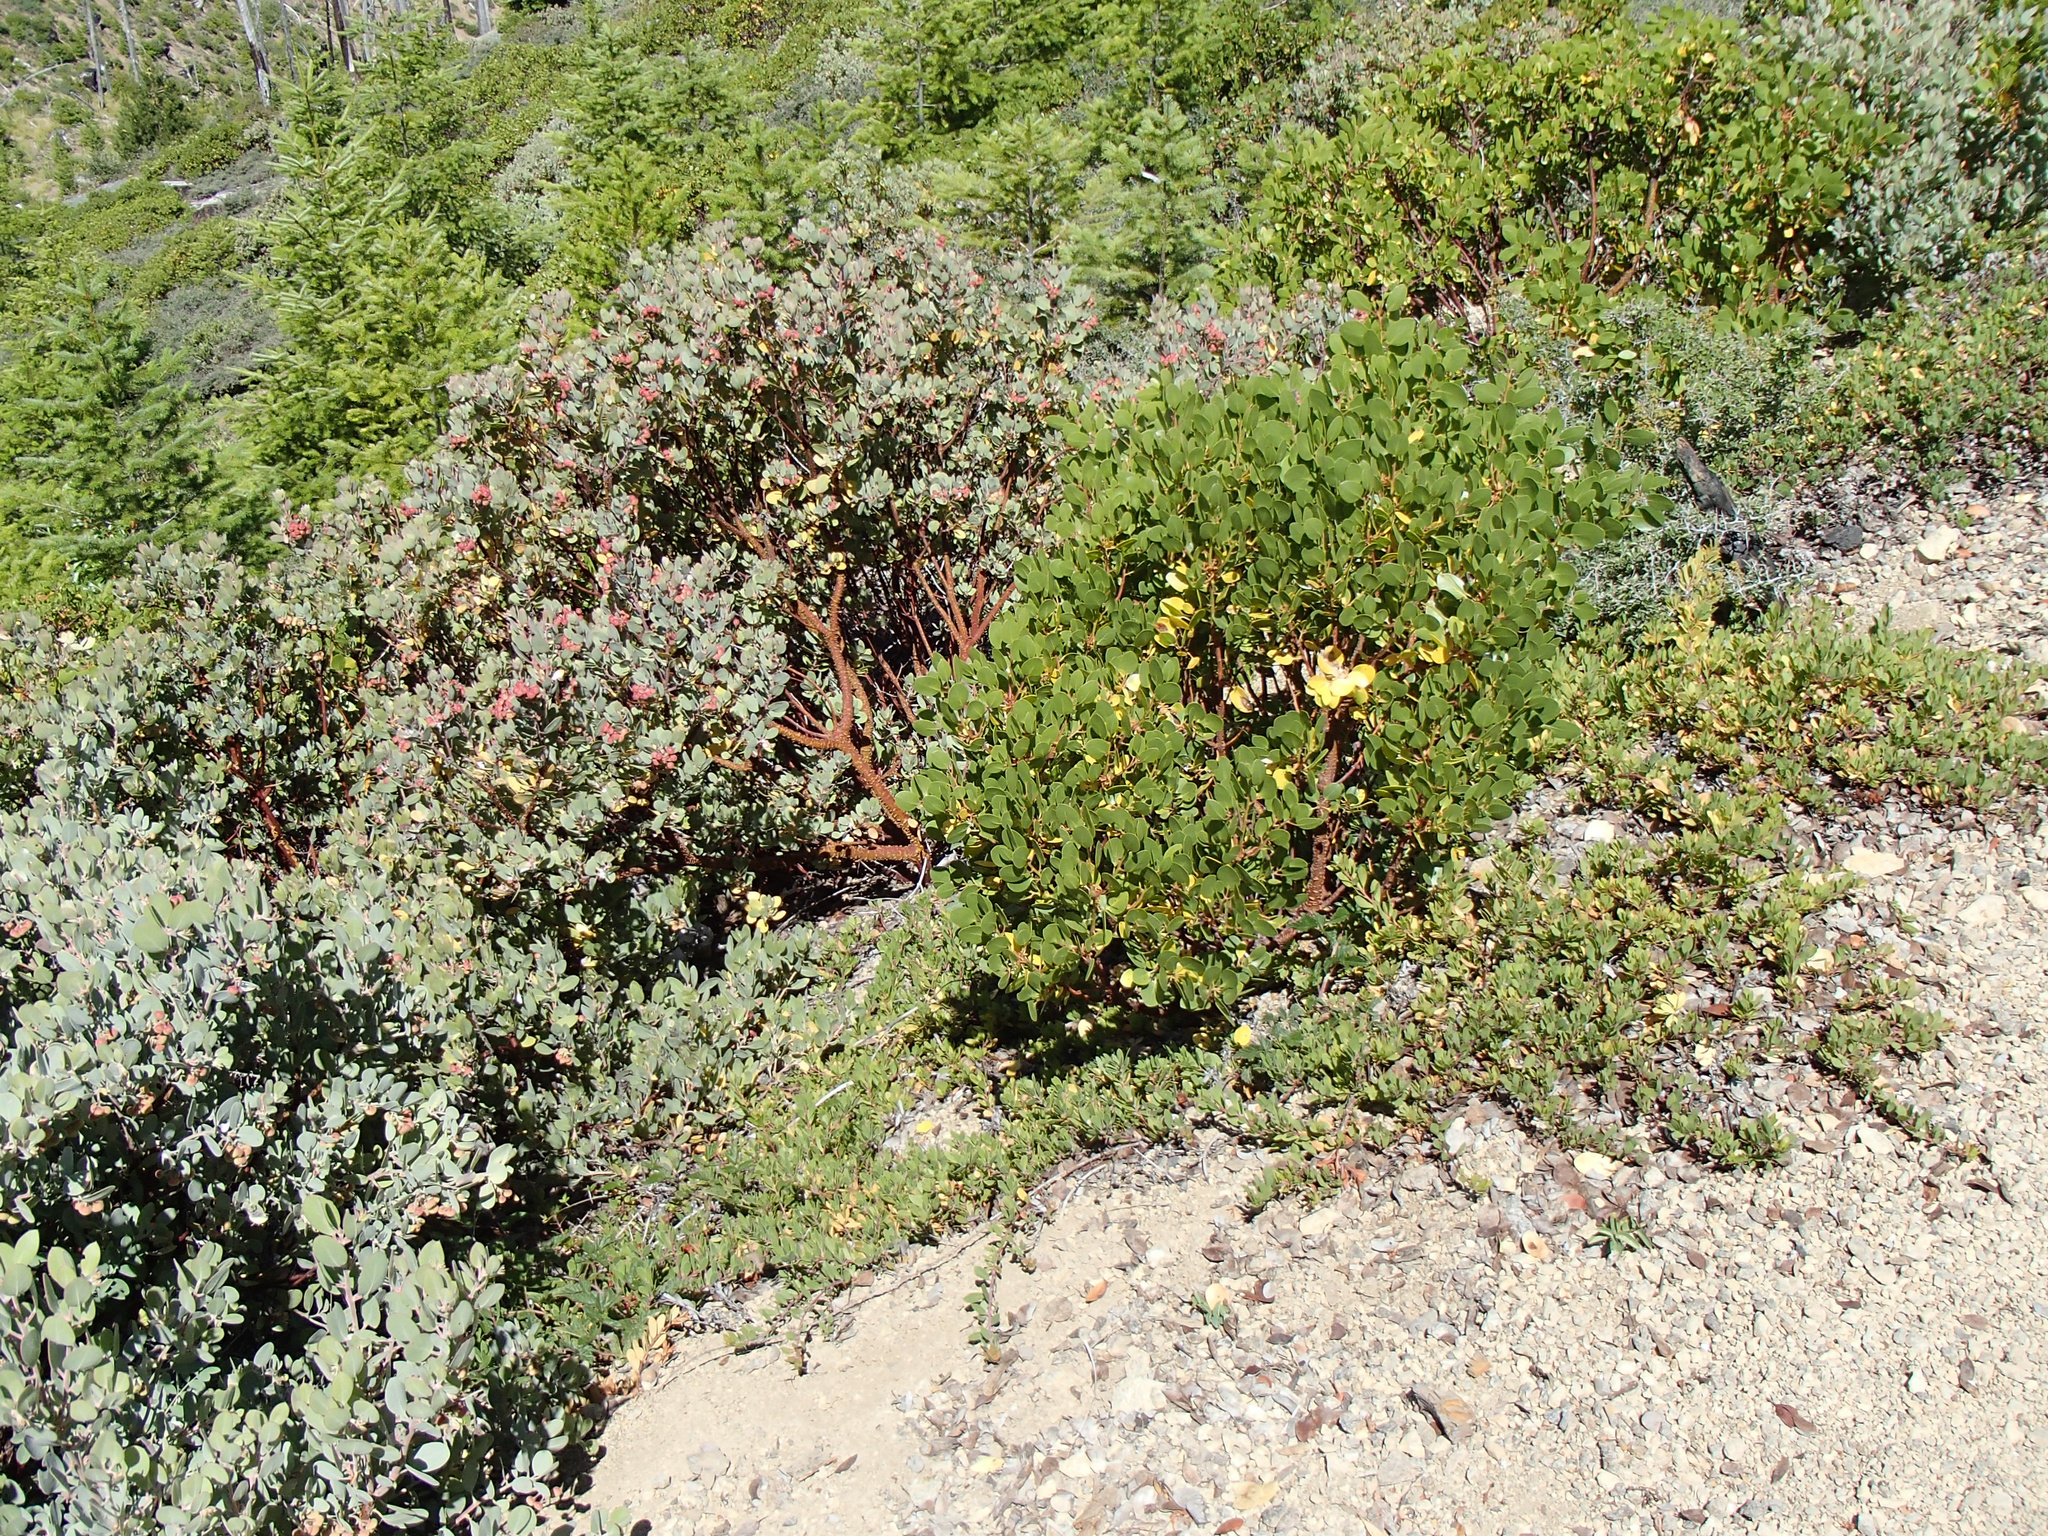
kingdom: Plantae
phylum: Tracheophyta
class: Magnoliopsida
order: Ericales
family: Ericaceae
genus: Arctostaphylos
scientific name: Arctostaphylos nevadensis
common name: Pinemat manzanita
